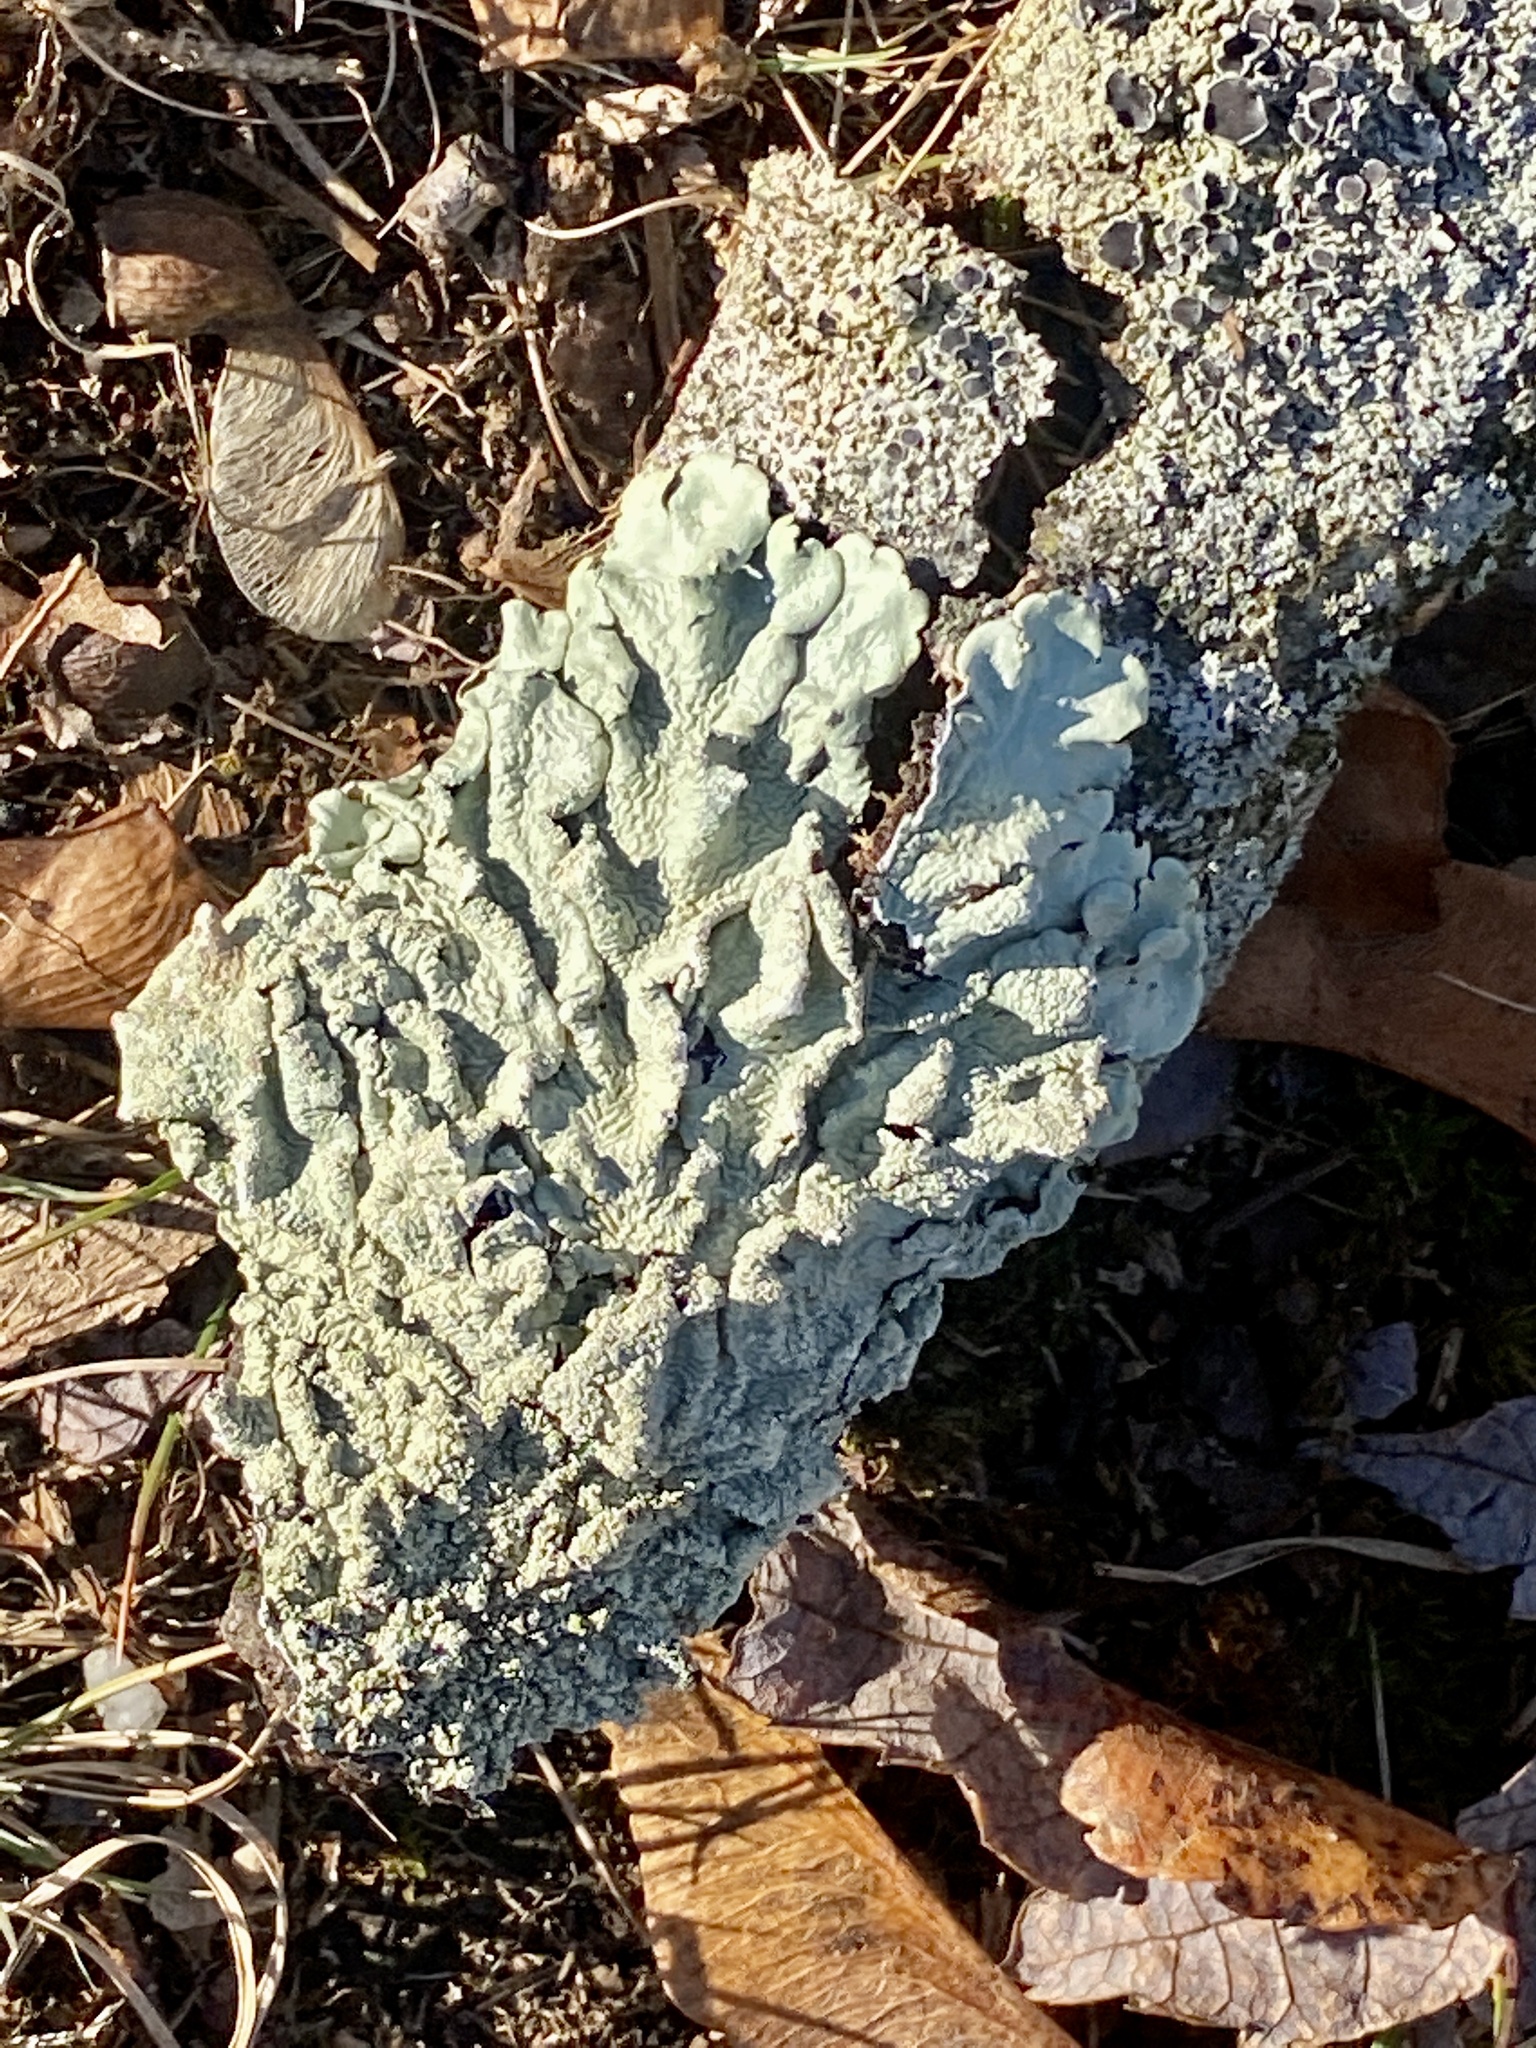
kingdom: Fungi
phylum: Ascomycota
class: Lecanoromycetes
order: Lecanorales
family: Parmeliaceae
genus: Flavoparmelia
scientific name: Flavoparmelia caperata
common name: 40-mile per hour lichen
